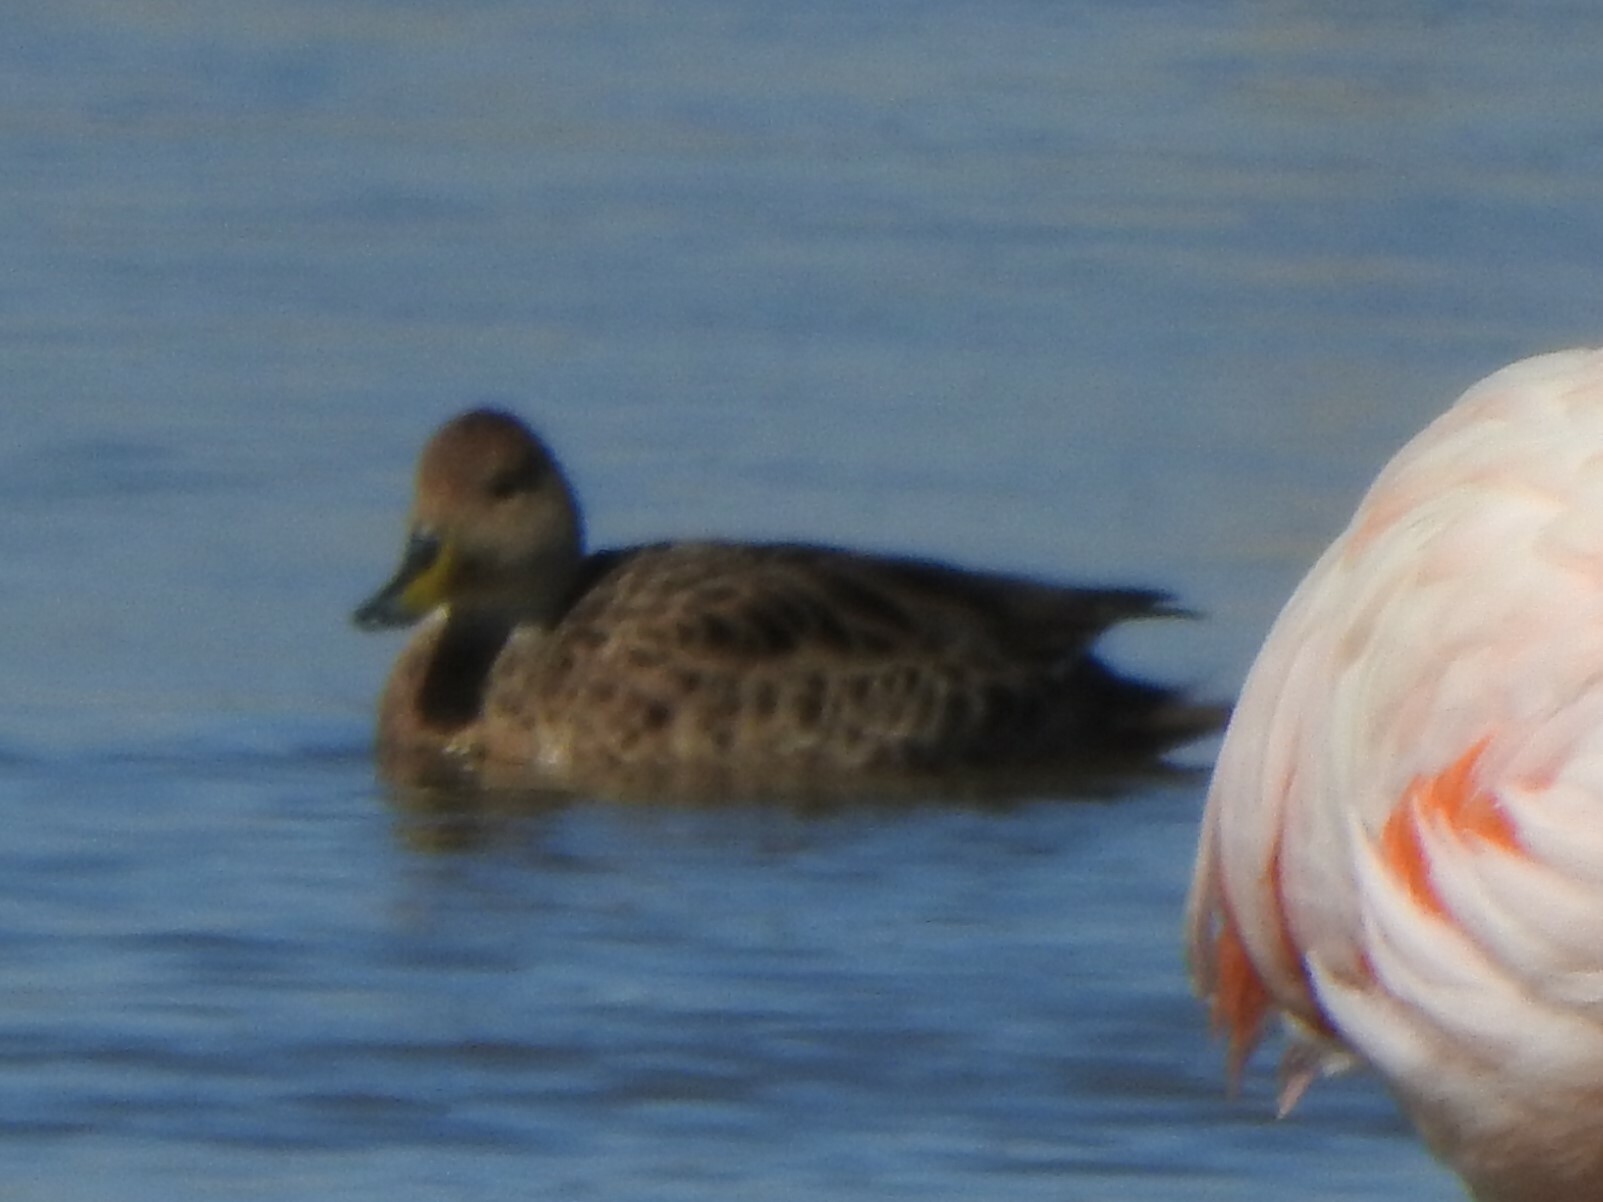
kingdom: Animalia
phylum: Chordata
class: Aves
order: Anseriformes
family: Anatidae
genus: Anas
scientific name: Anas georgica
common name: Yellow-billed pintail
